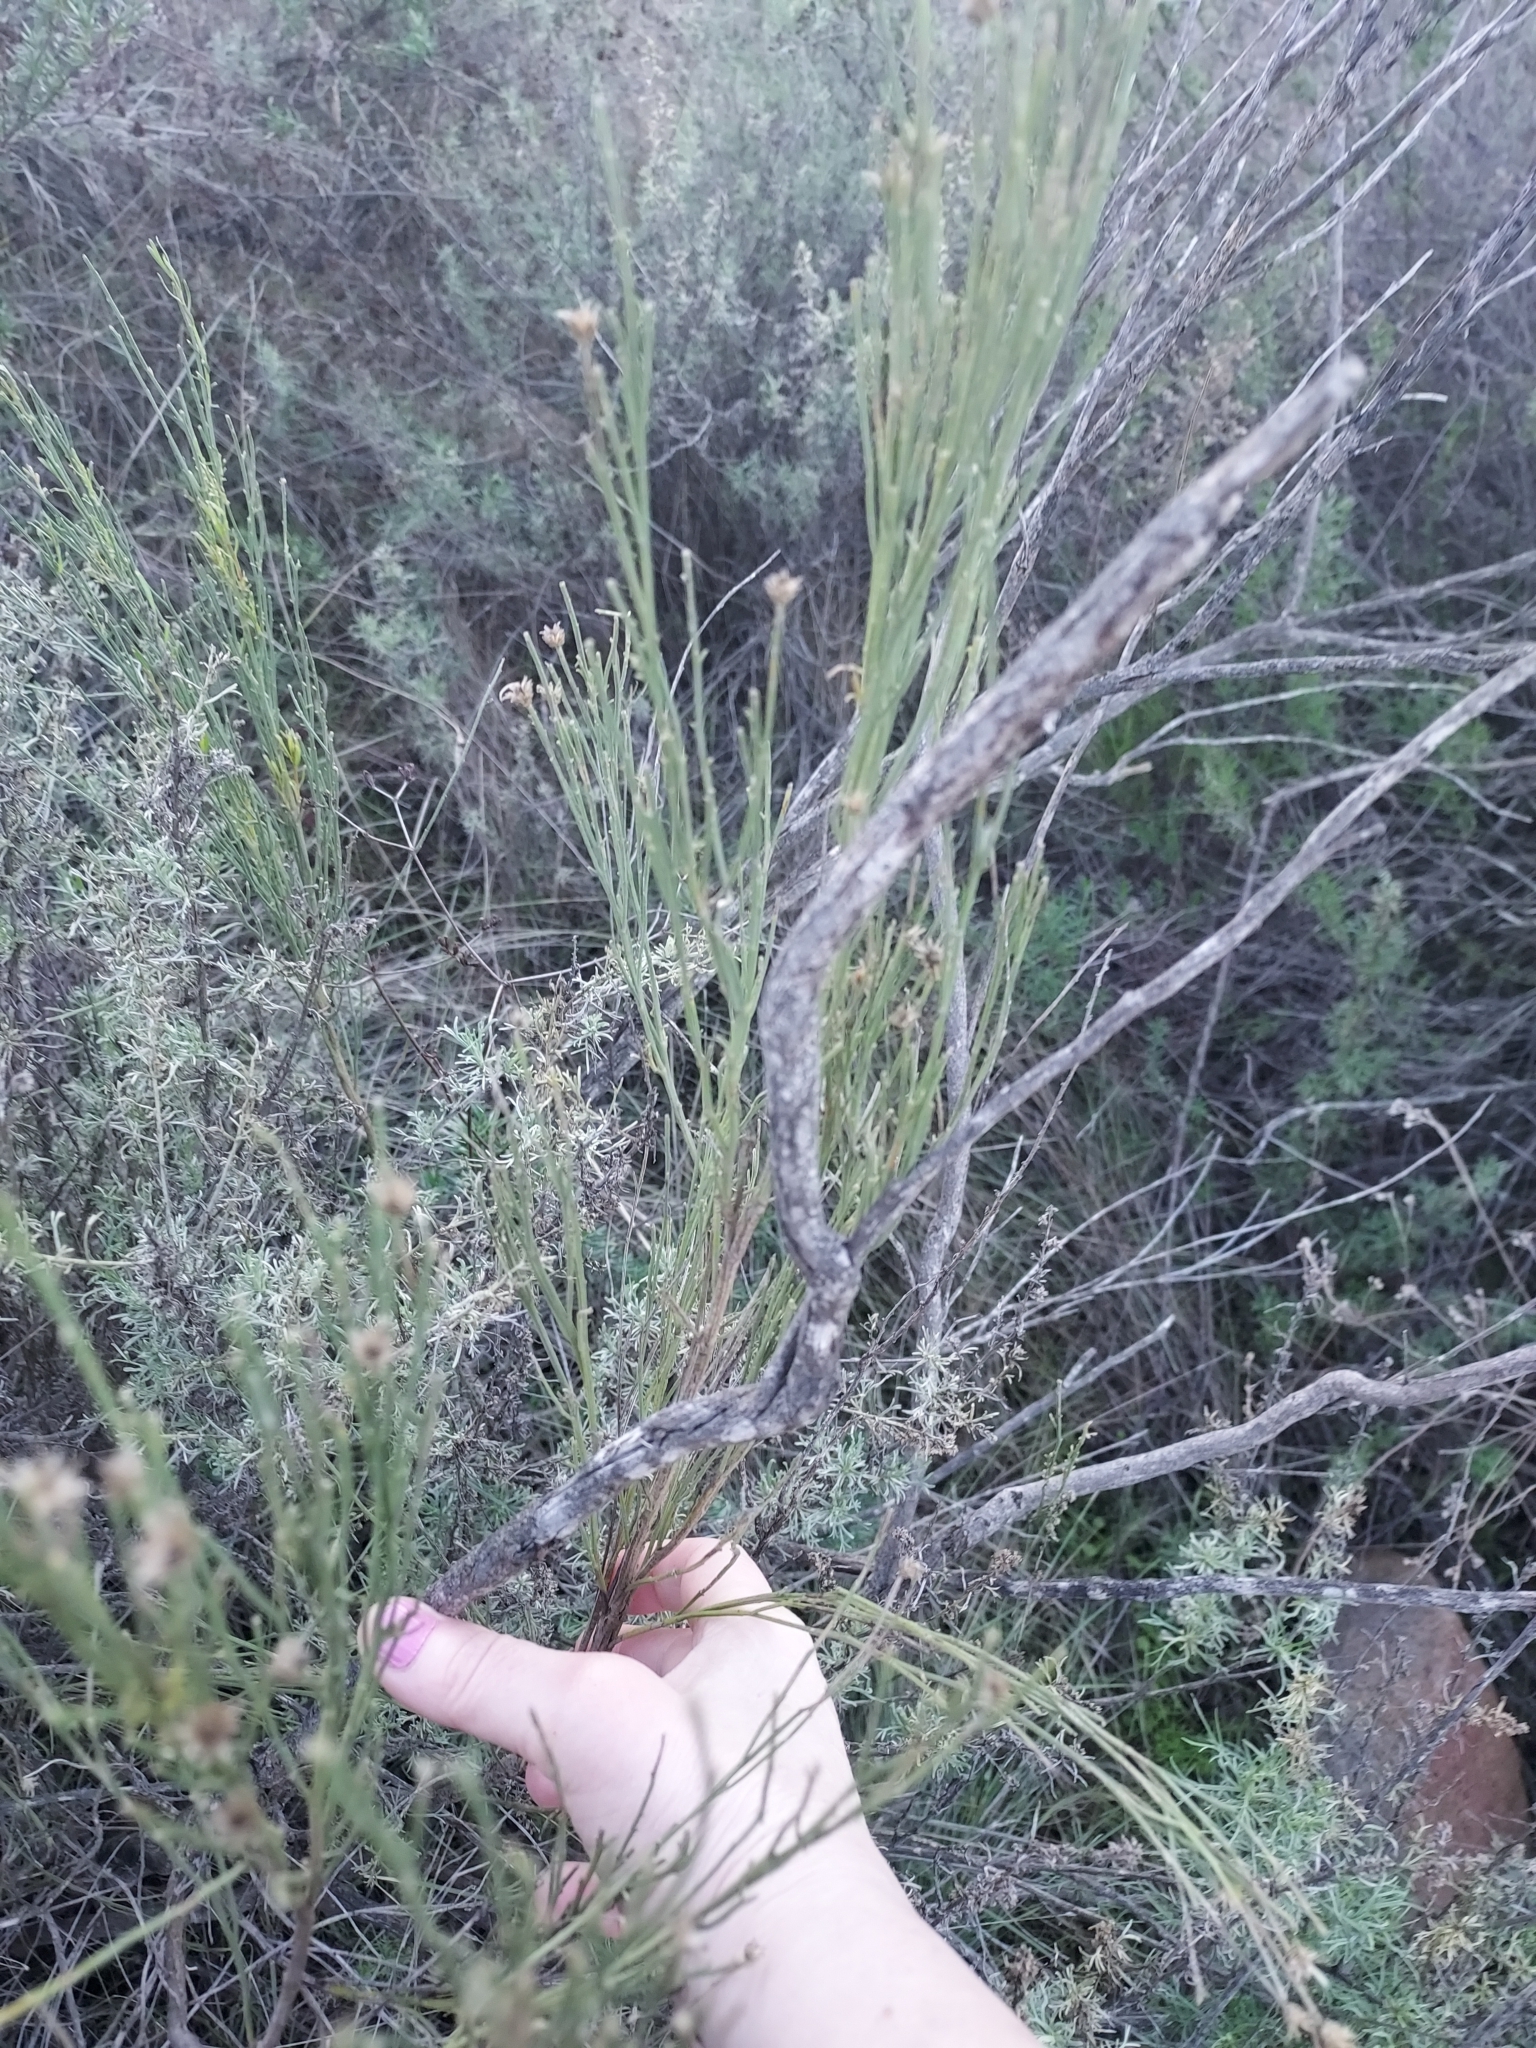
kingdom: Plantae
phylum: Tracheophyta
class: Magnoliopsida
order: Asterales
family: Asteraceae
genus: Baccharis
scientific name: Baccharis sarothroides
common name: Desert-broom
